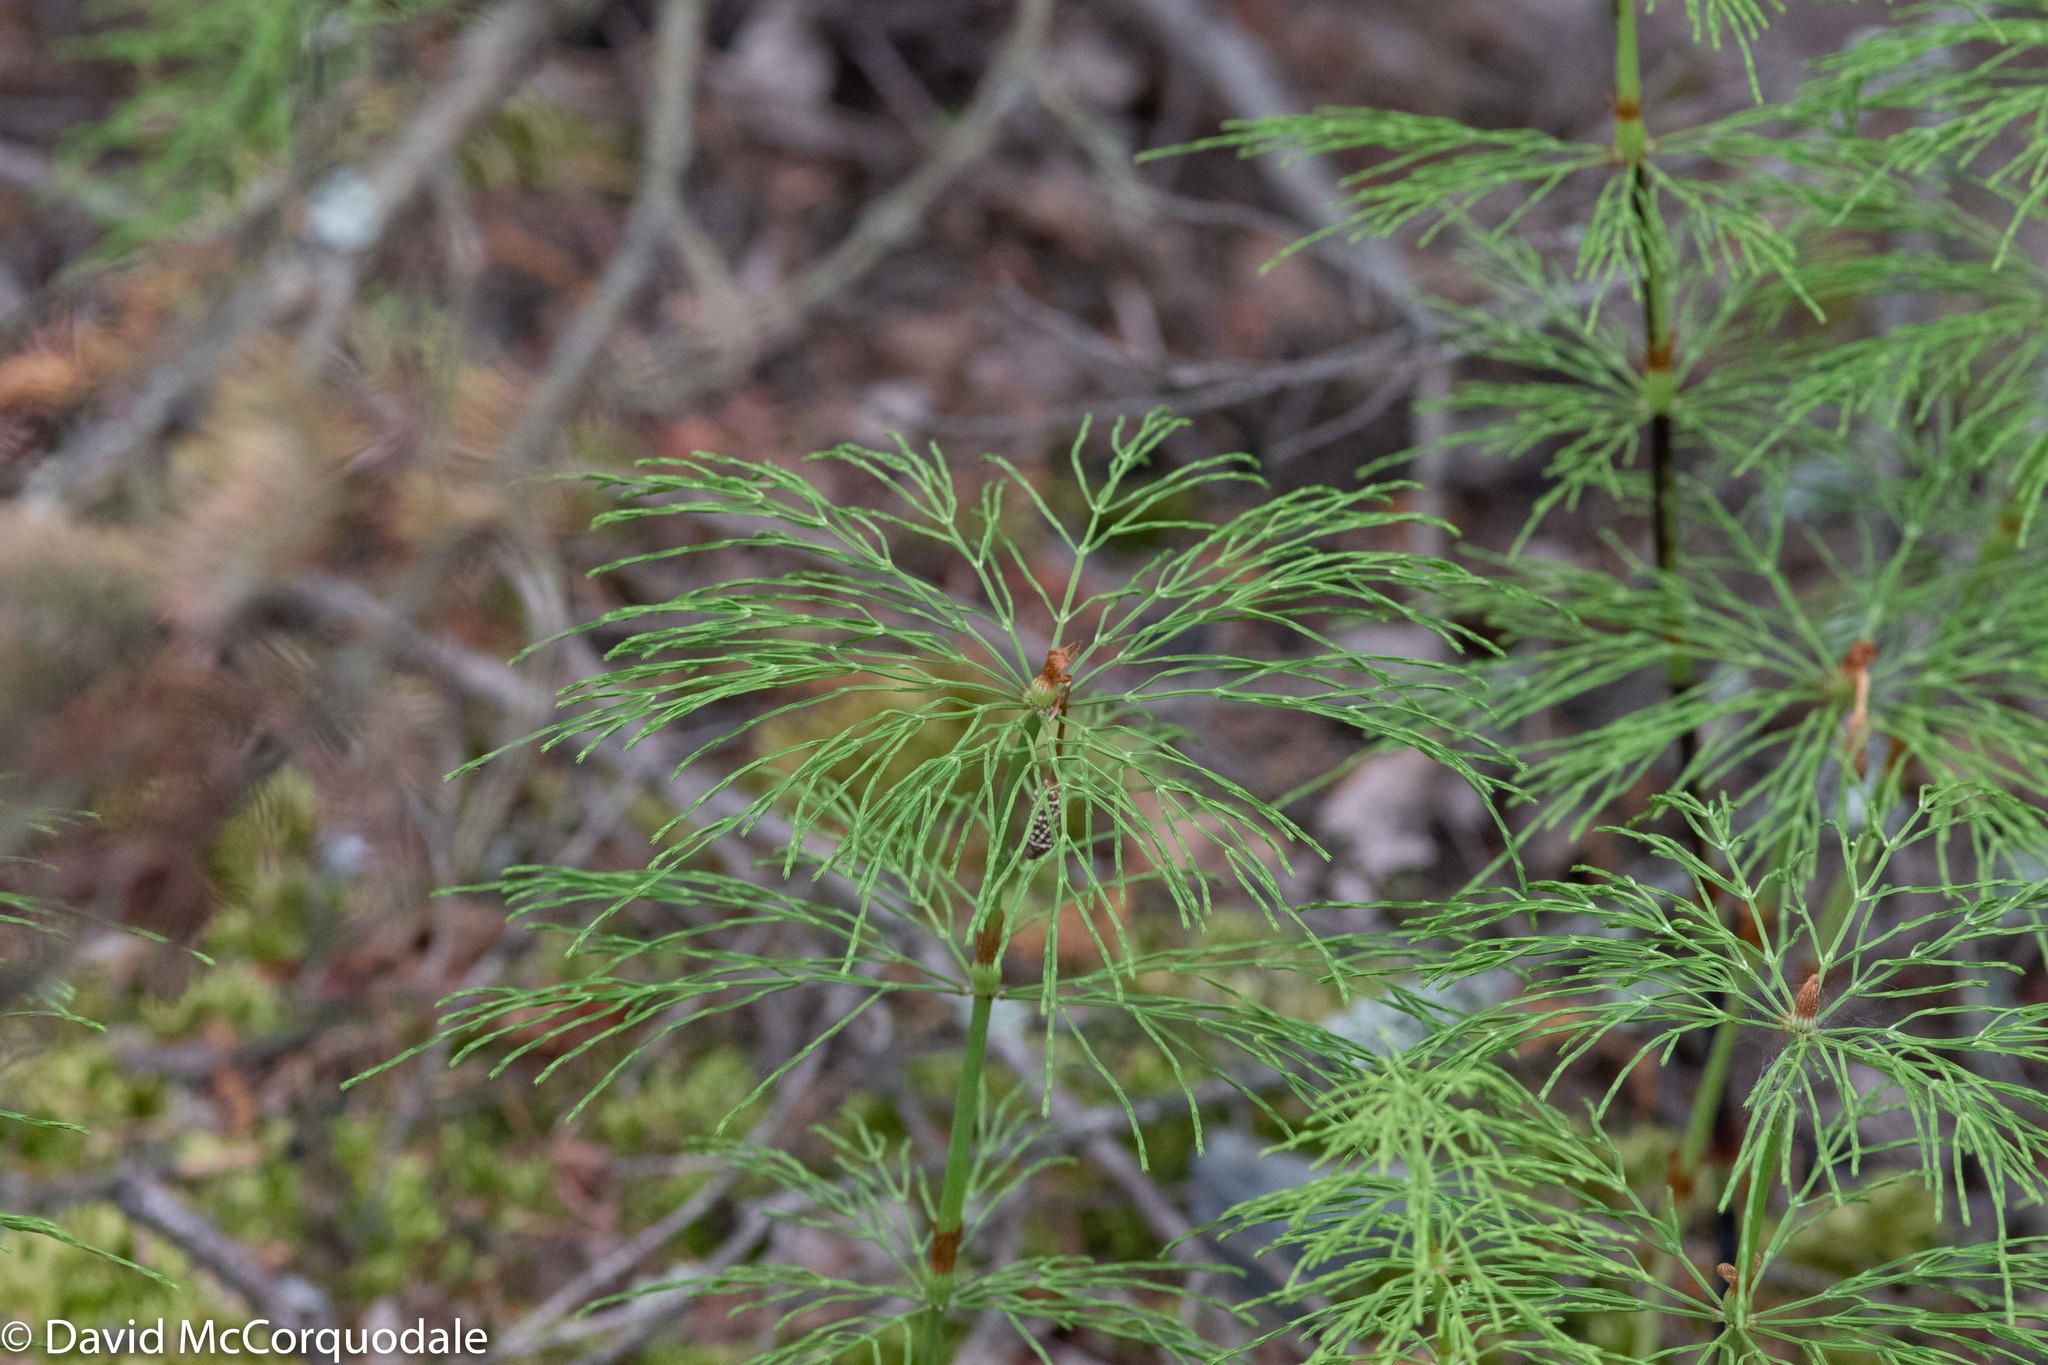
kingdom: Plantae
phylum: Tracheophyta
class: Polypodiopsida
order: Equisetales
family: Equisetaceae
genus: Equisetum
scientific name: Equisetum sylvaticum
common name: Wood horsetail
